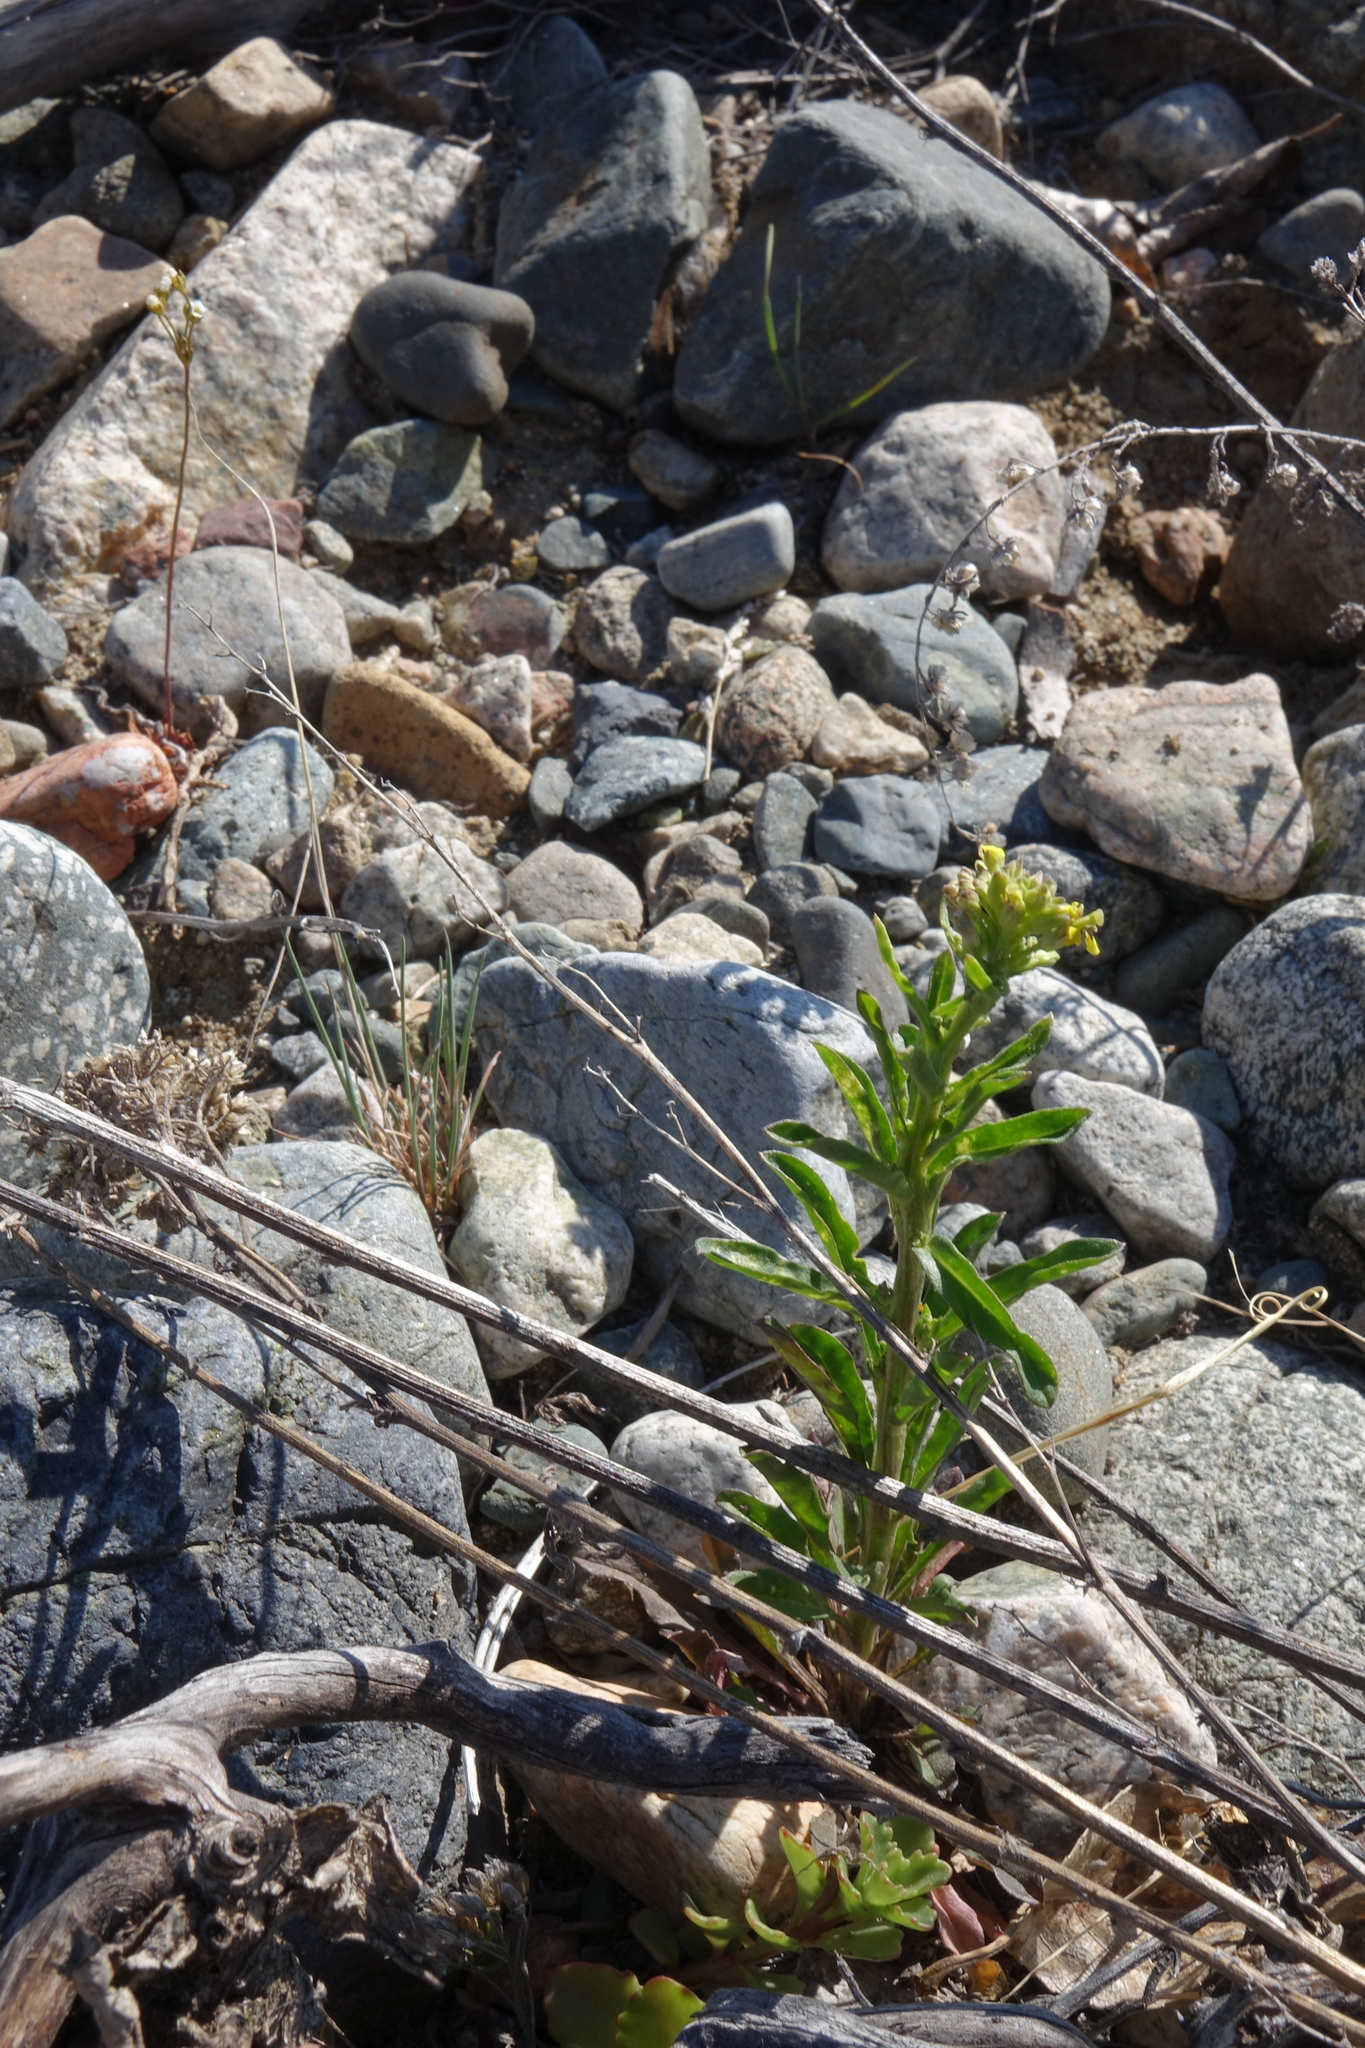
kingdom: Plantae
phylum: Tracheophyta
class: Magnoliopsida
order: Brassicales
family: Brassicaceae
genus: Erysimum
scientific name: Erysimum hieraciifolium
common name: European wallflower
